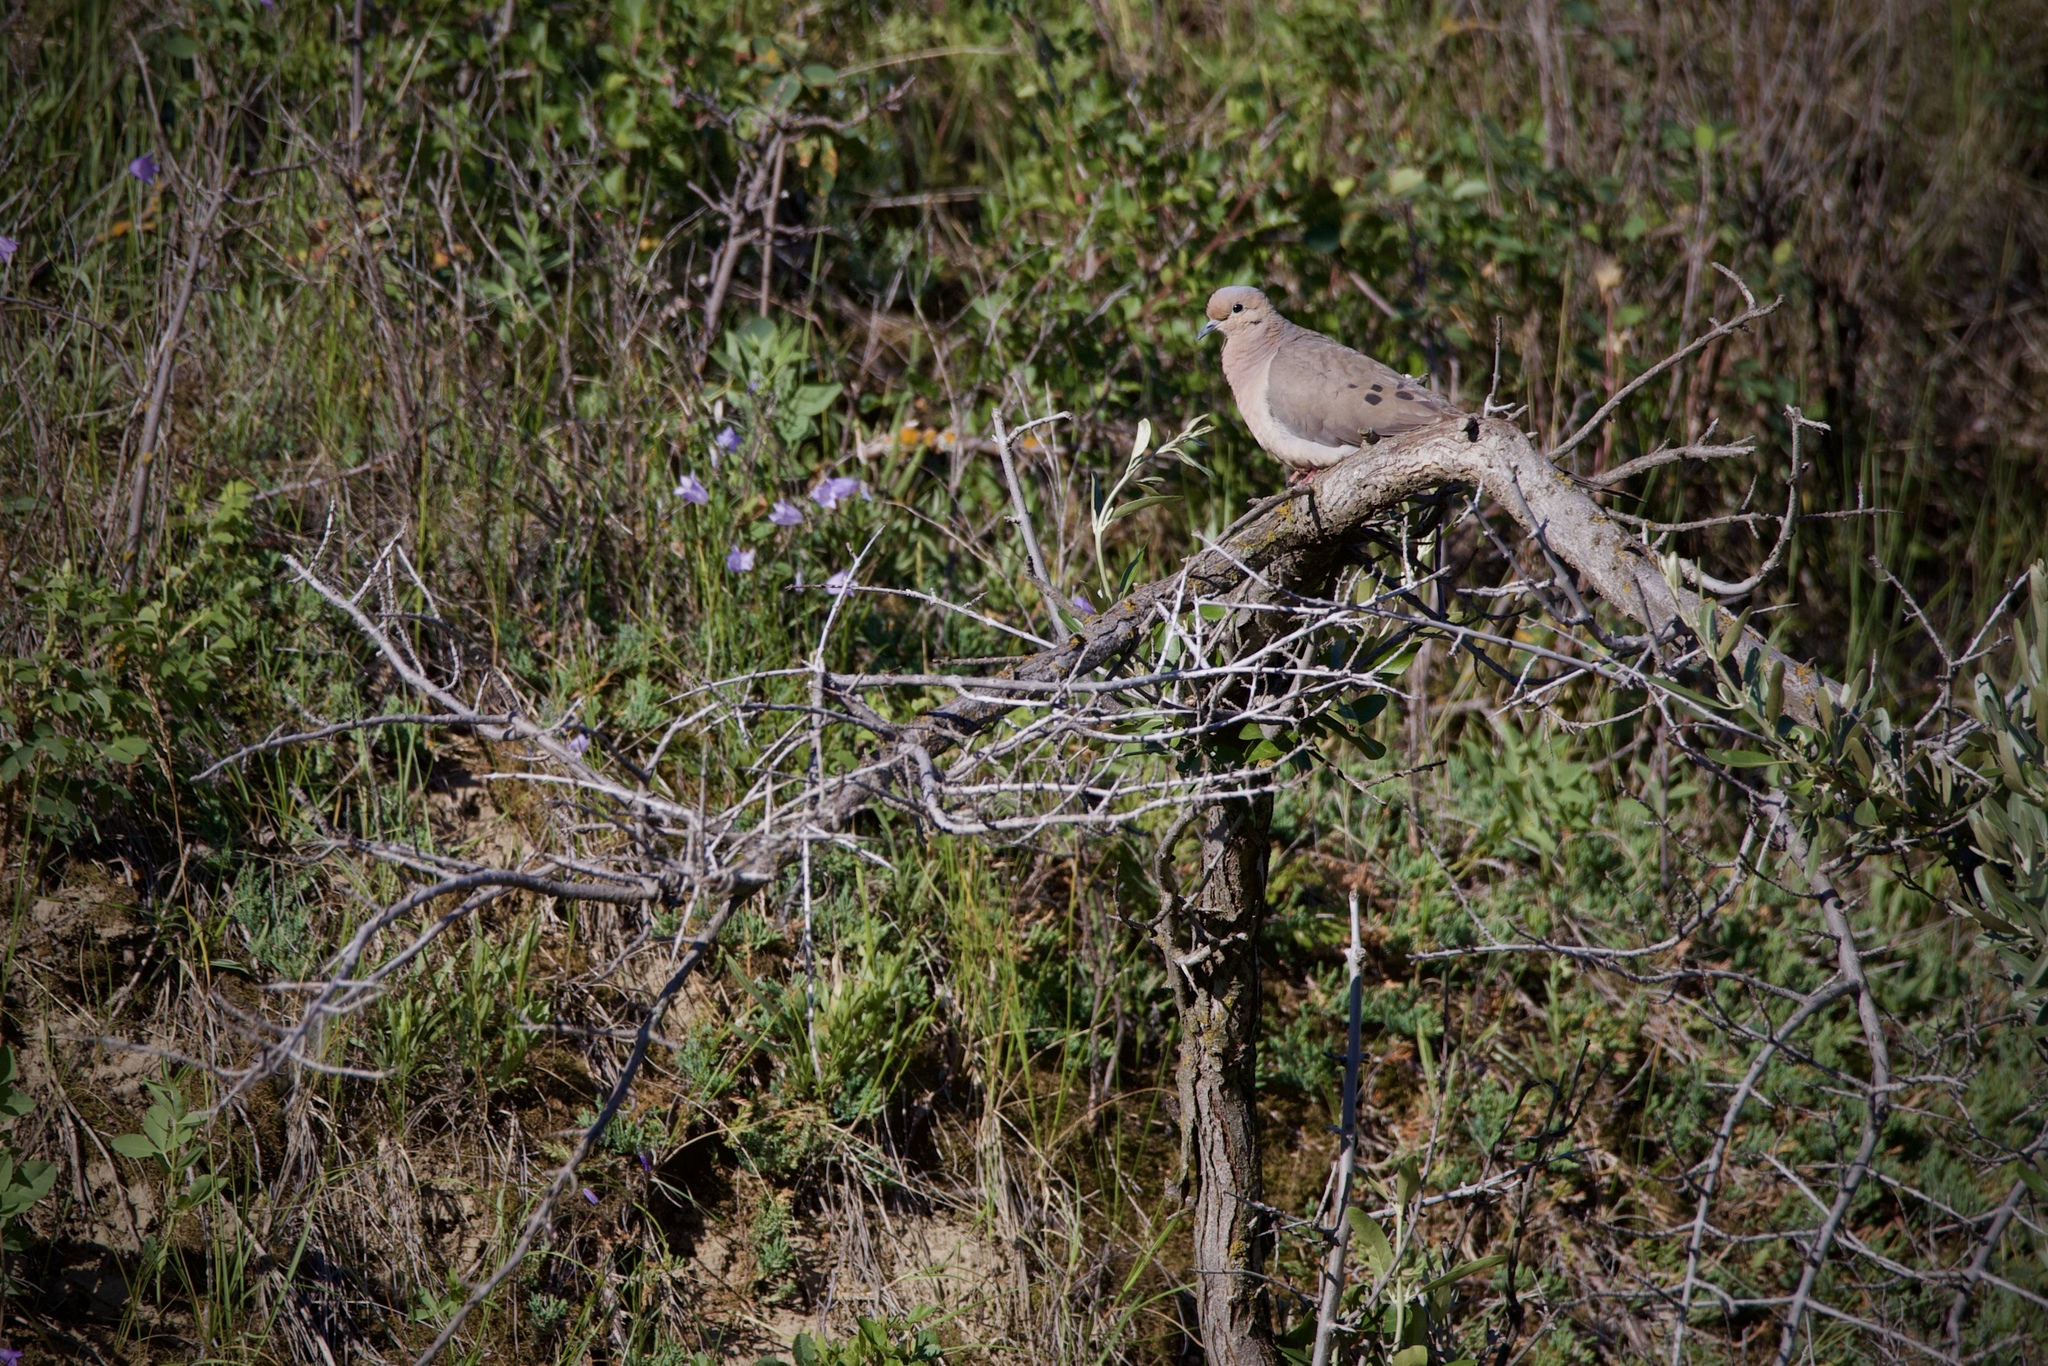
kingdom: Animalia
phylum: Chordata
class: Aves
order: Columbiformes
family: Columbidae
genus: Zenaida
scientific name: Zenaida macroura
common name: Mourning dove
